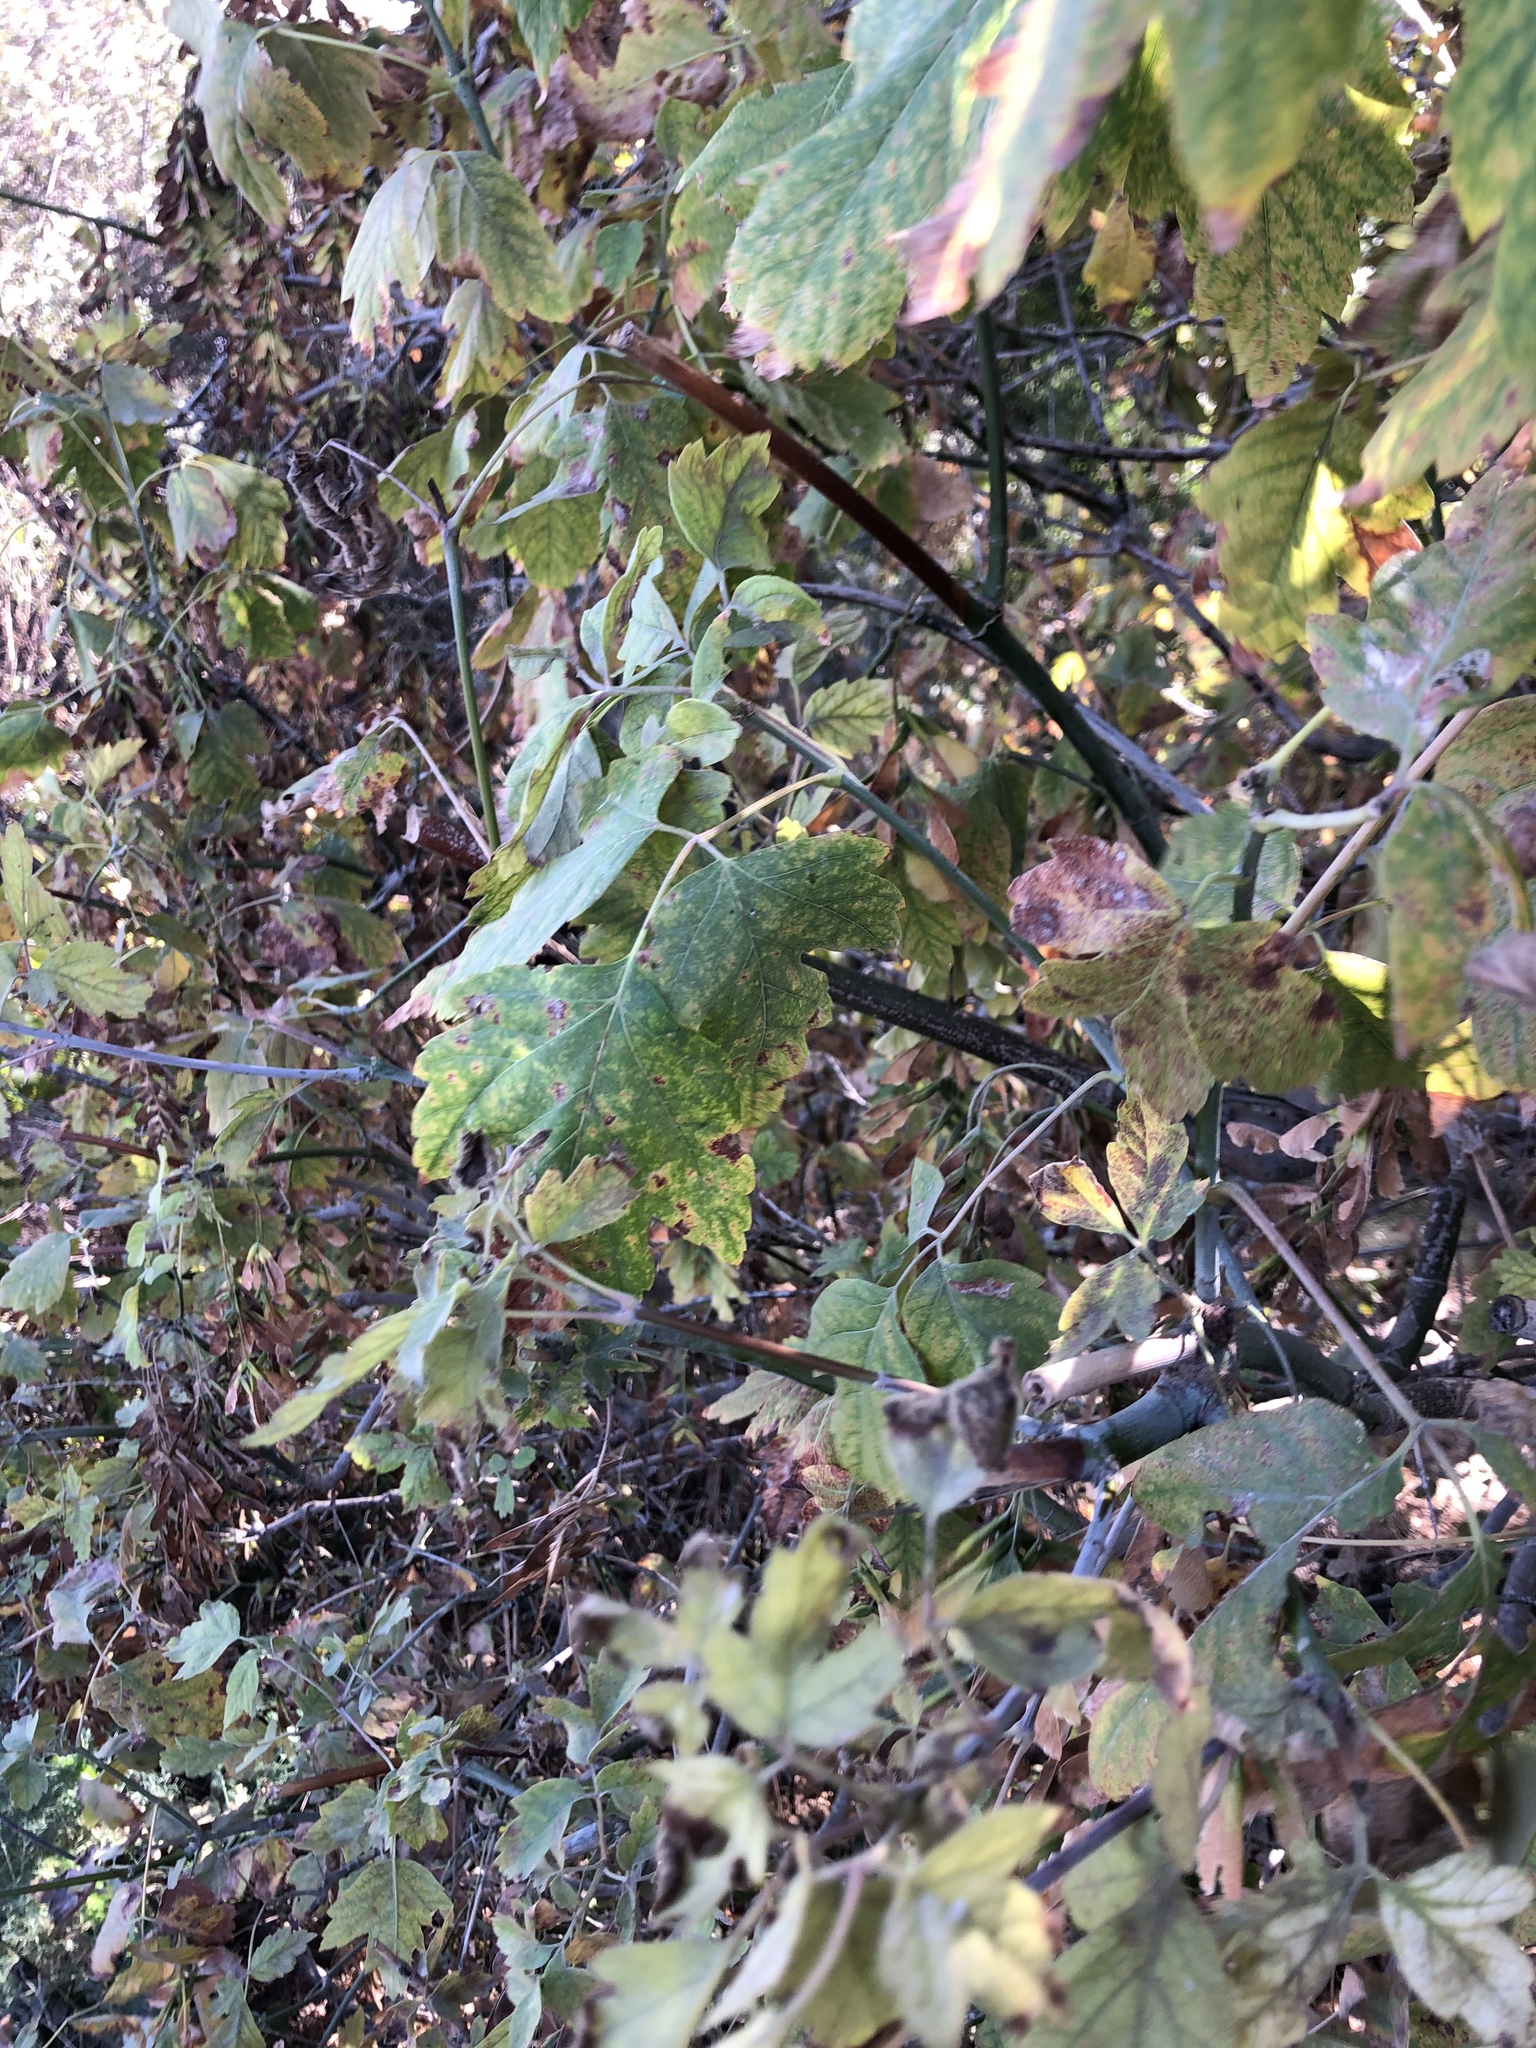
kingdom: Plantae
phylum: Tracheophyta
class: Magnoliopsida
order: Sapindales
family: Sapindaceae
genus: Acer
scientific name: Acer negundo
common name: Ashleaf maple
